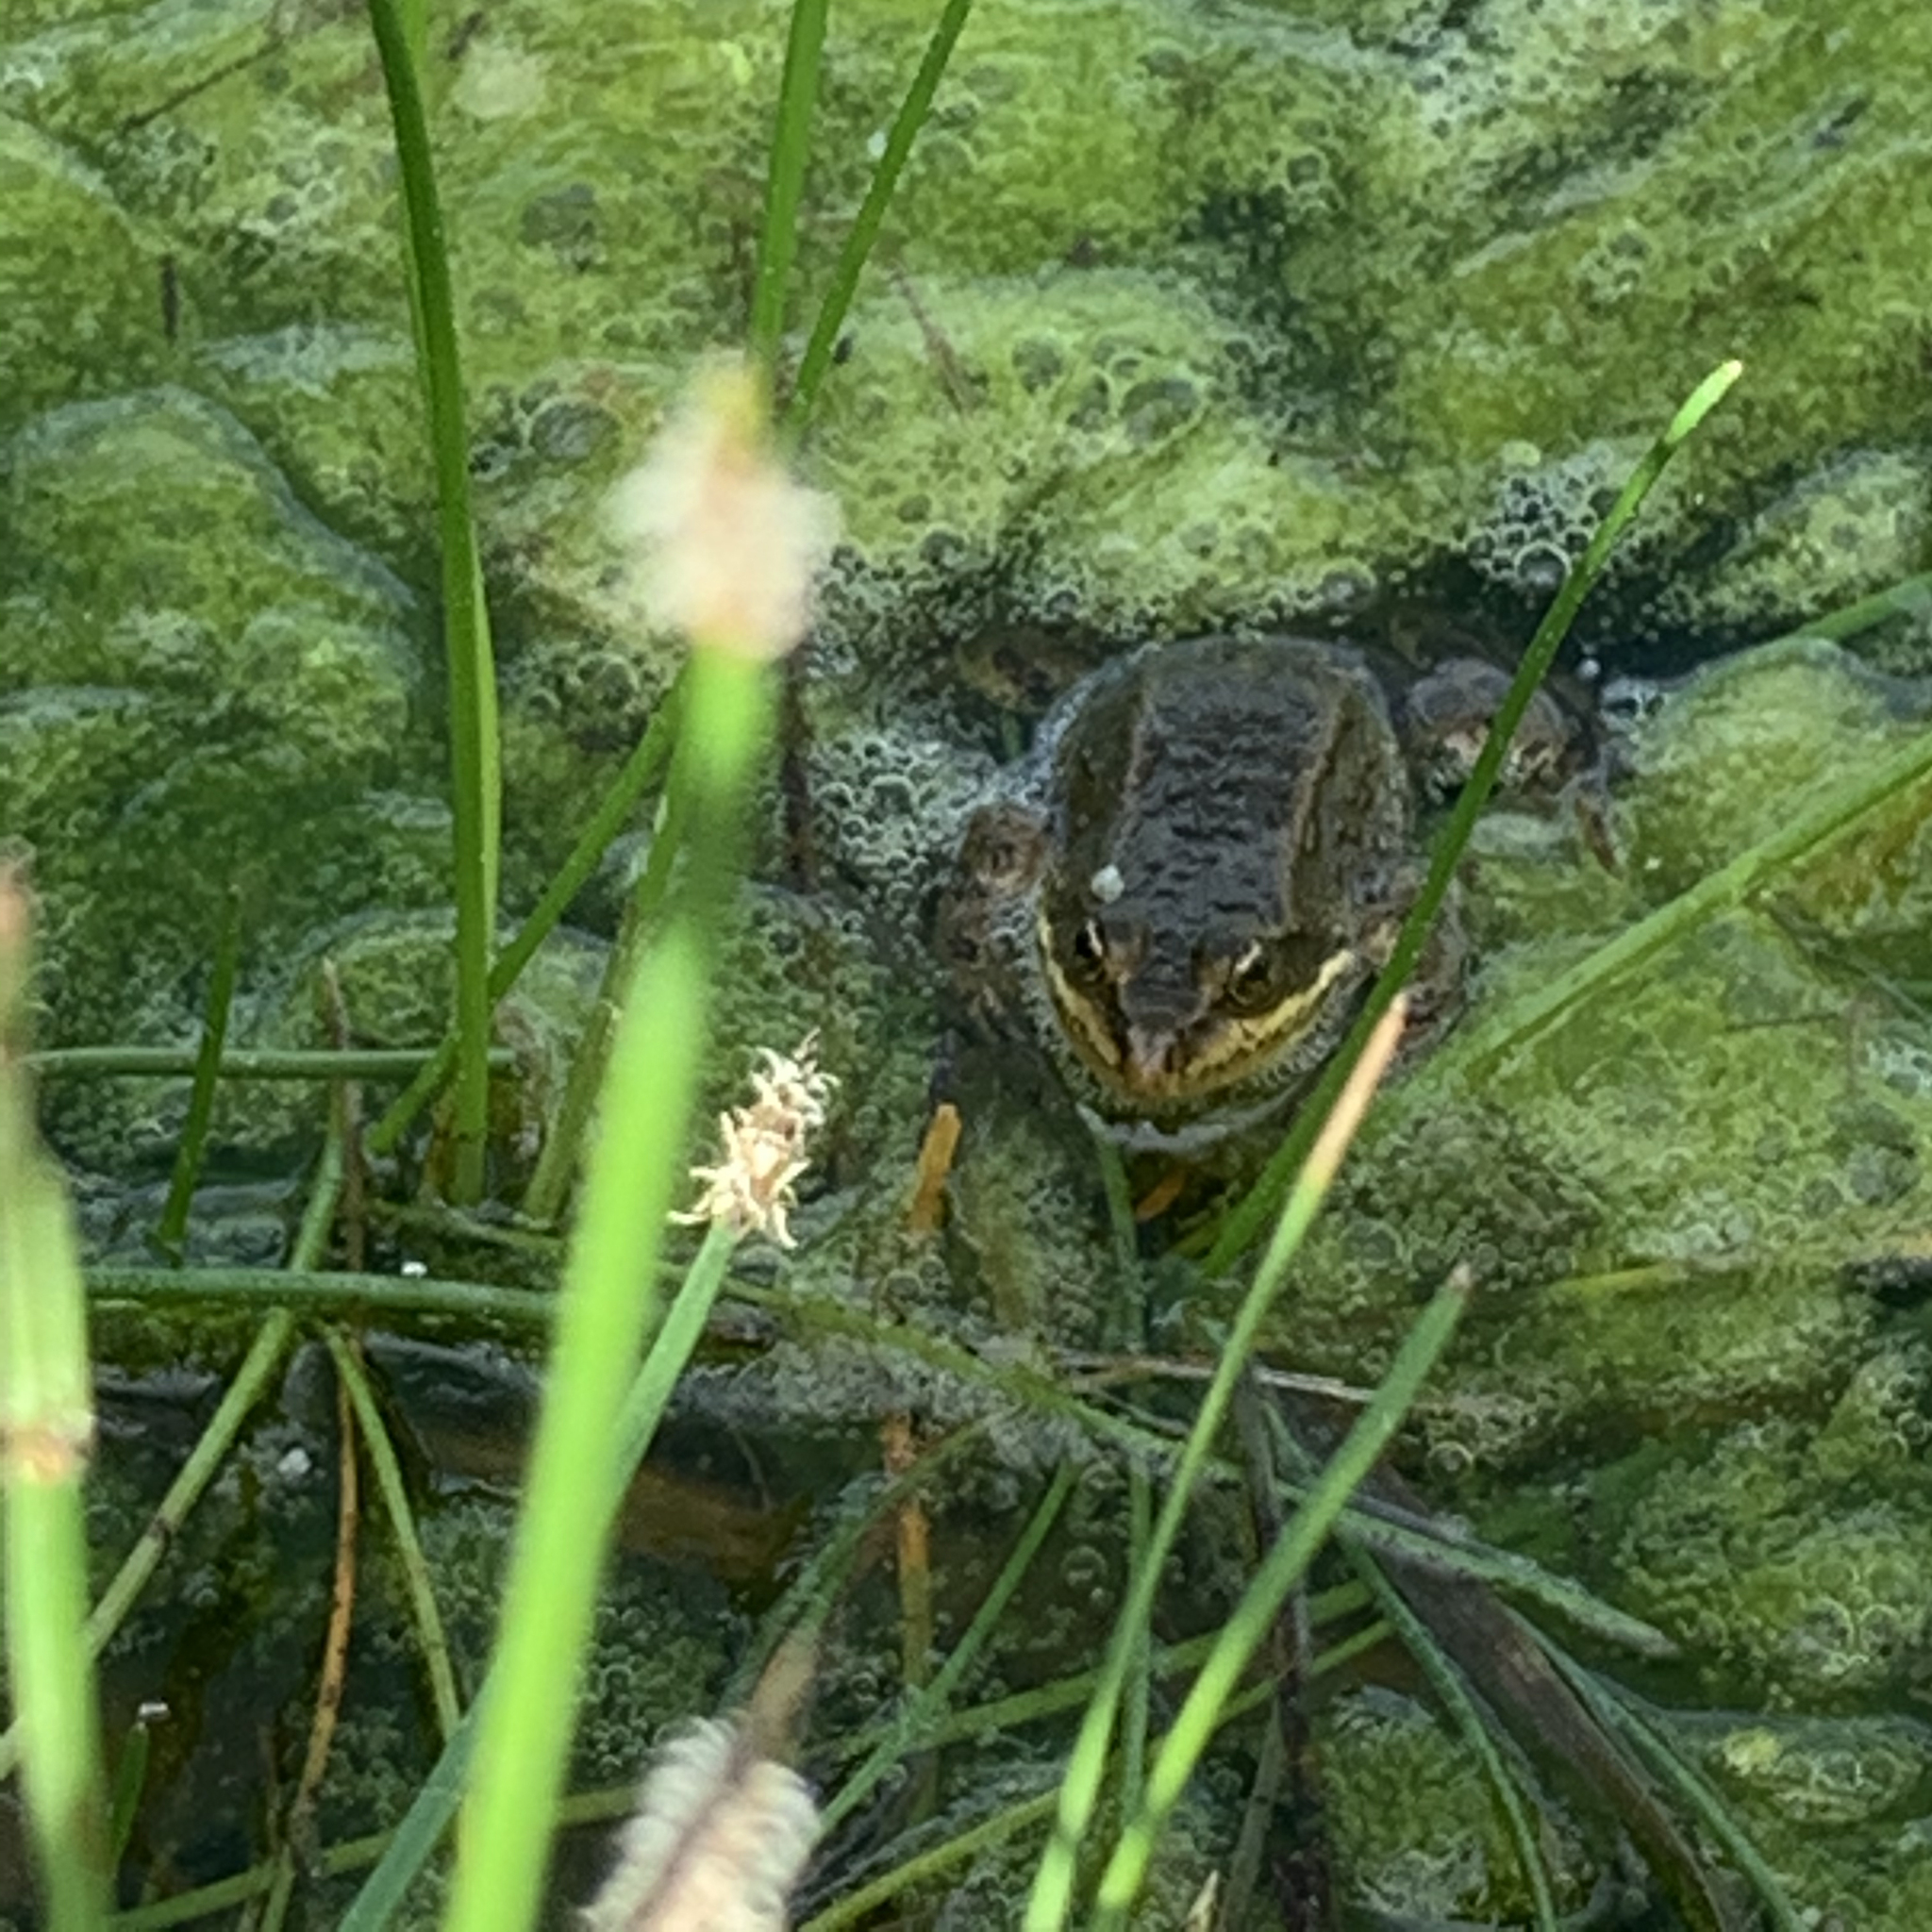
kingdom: Animalia
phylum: Chordata
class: Amphibia
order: Anura
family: Ranidae
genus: Rana
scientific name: Rana luteiventris
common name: Columbia spotted frog
